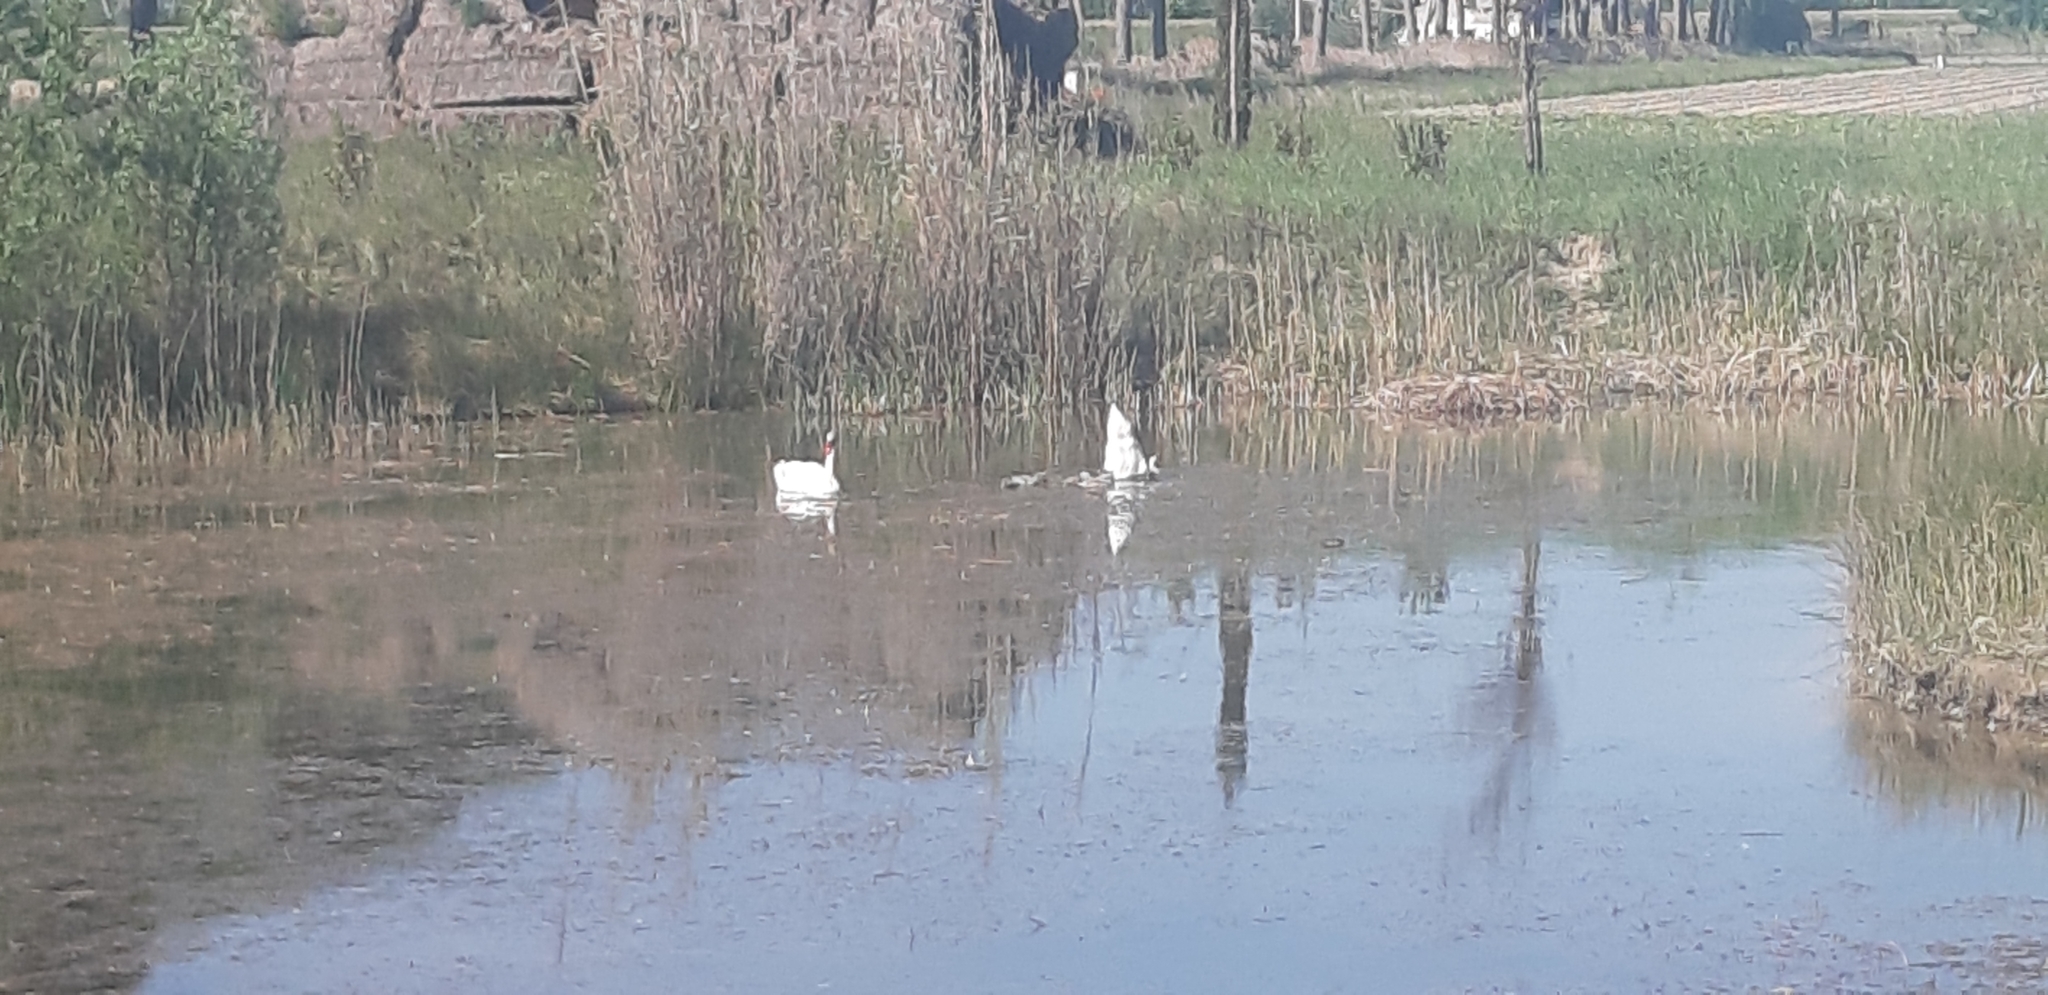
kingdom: Animalia
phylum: Chordata
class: Aves
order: Anseriformes
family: Anatidae
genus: Cygnus
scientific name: Cygnus olor
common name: Mute swan
